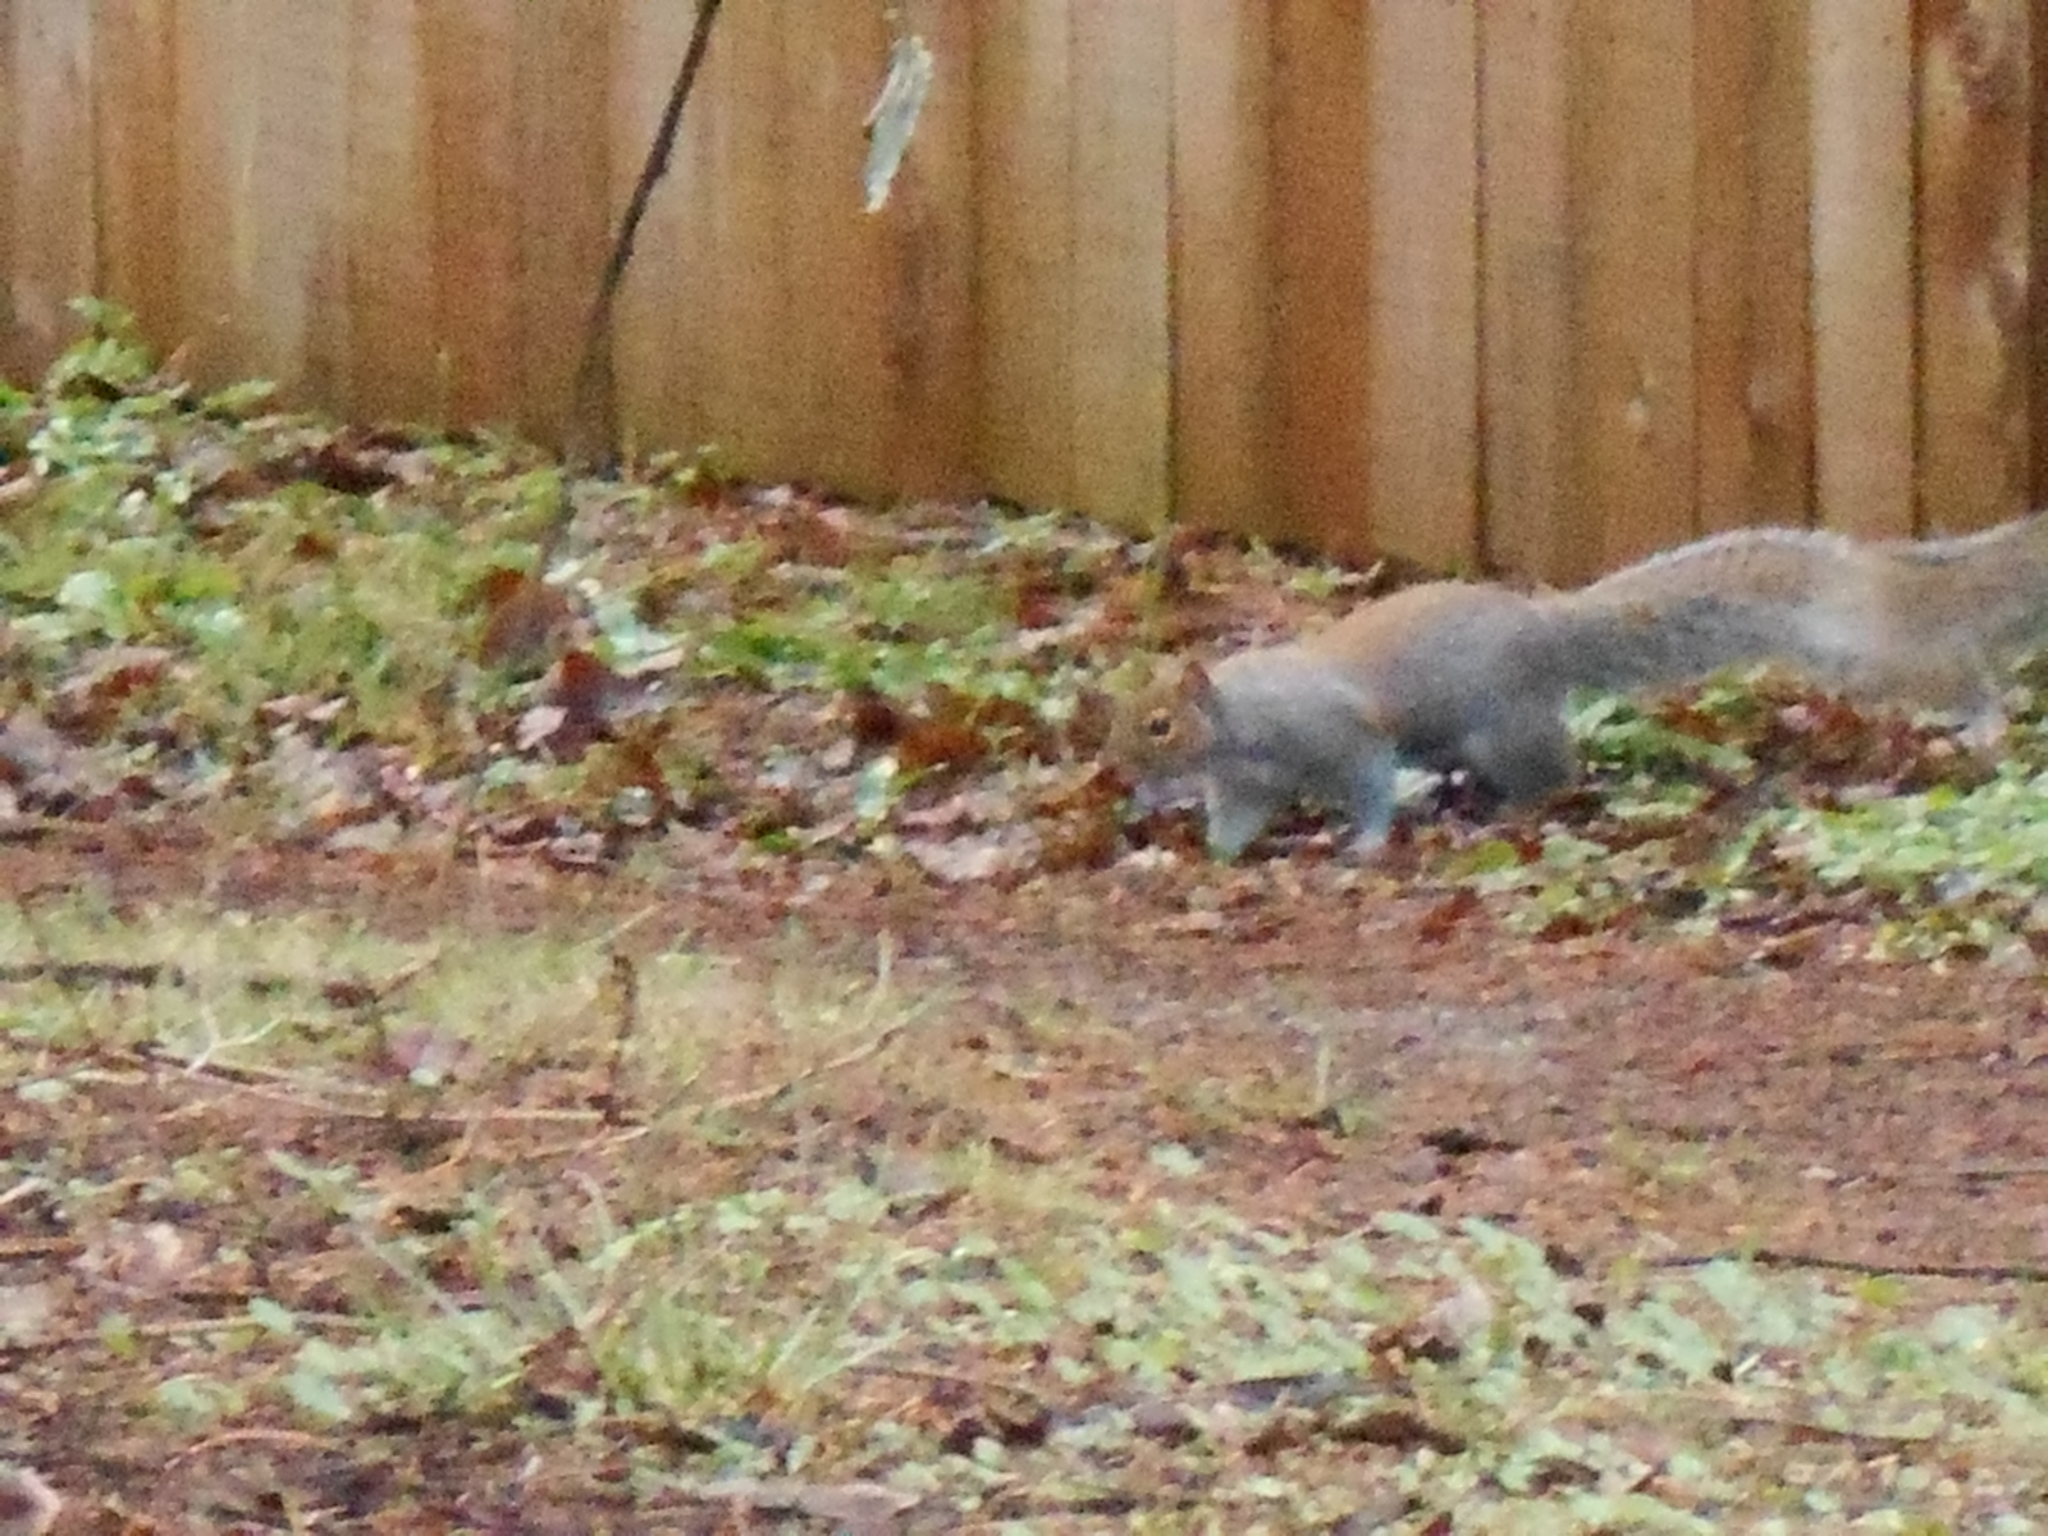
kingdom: Animalia
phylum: Chordata
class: Mammalia
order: Rodentia
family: Sciuridae
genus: Sciurus
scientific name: Sciurus carolinensis
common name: Eastern gray squirrel
